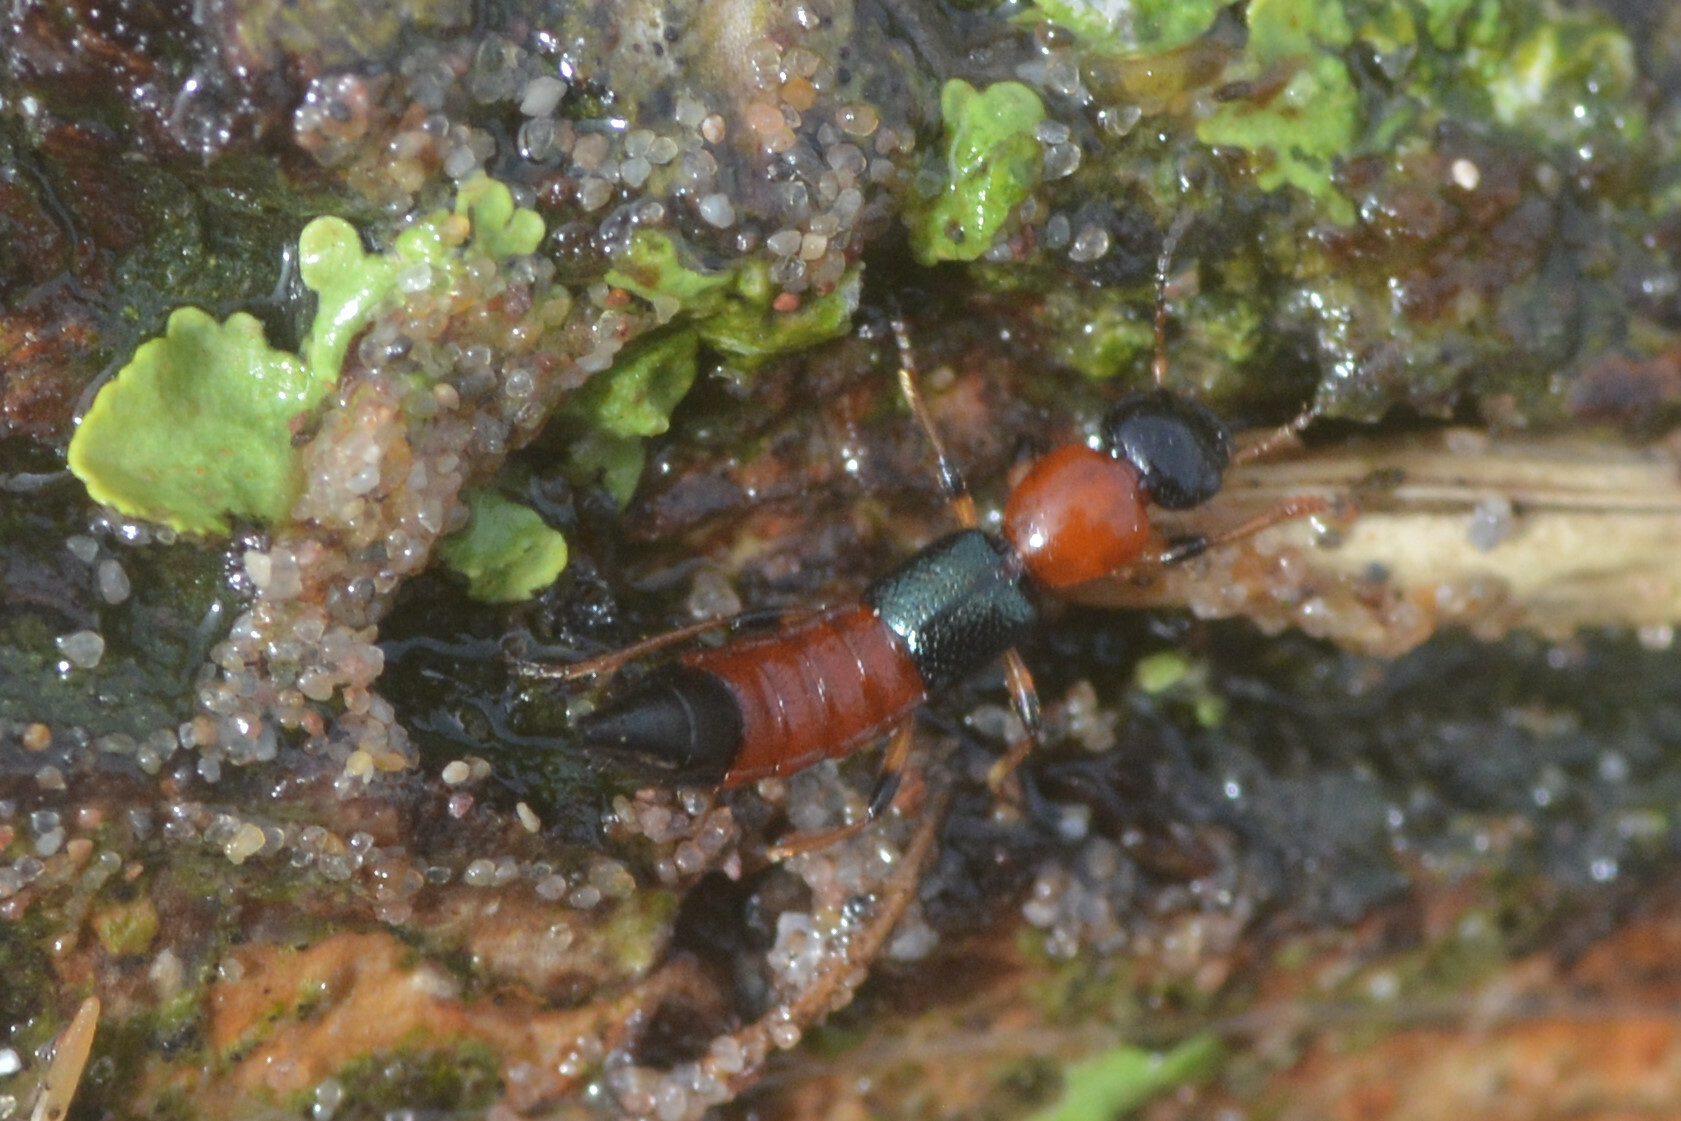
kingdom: Animalia
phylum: Arthropoda
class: Insecta
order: Coleoptera
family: Staphylinidae
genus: Paederus
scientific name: Paederus littoralis
